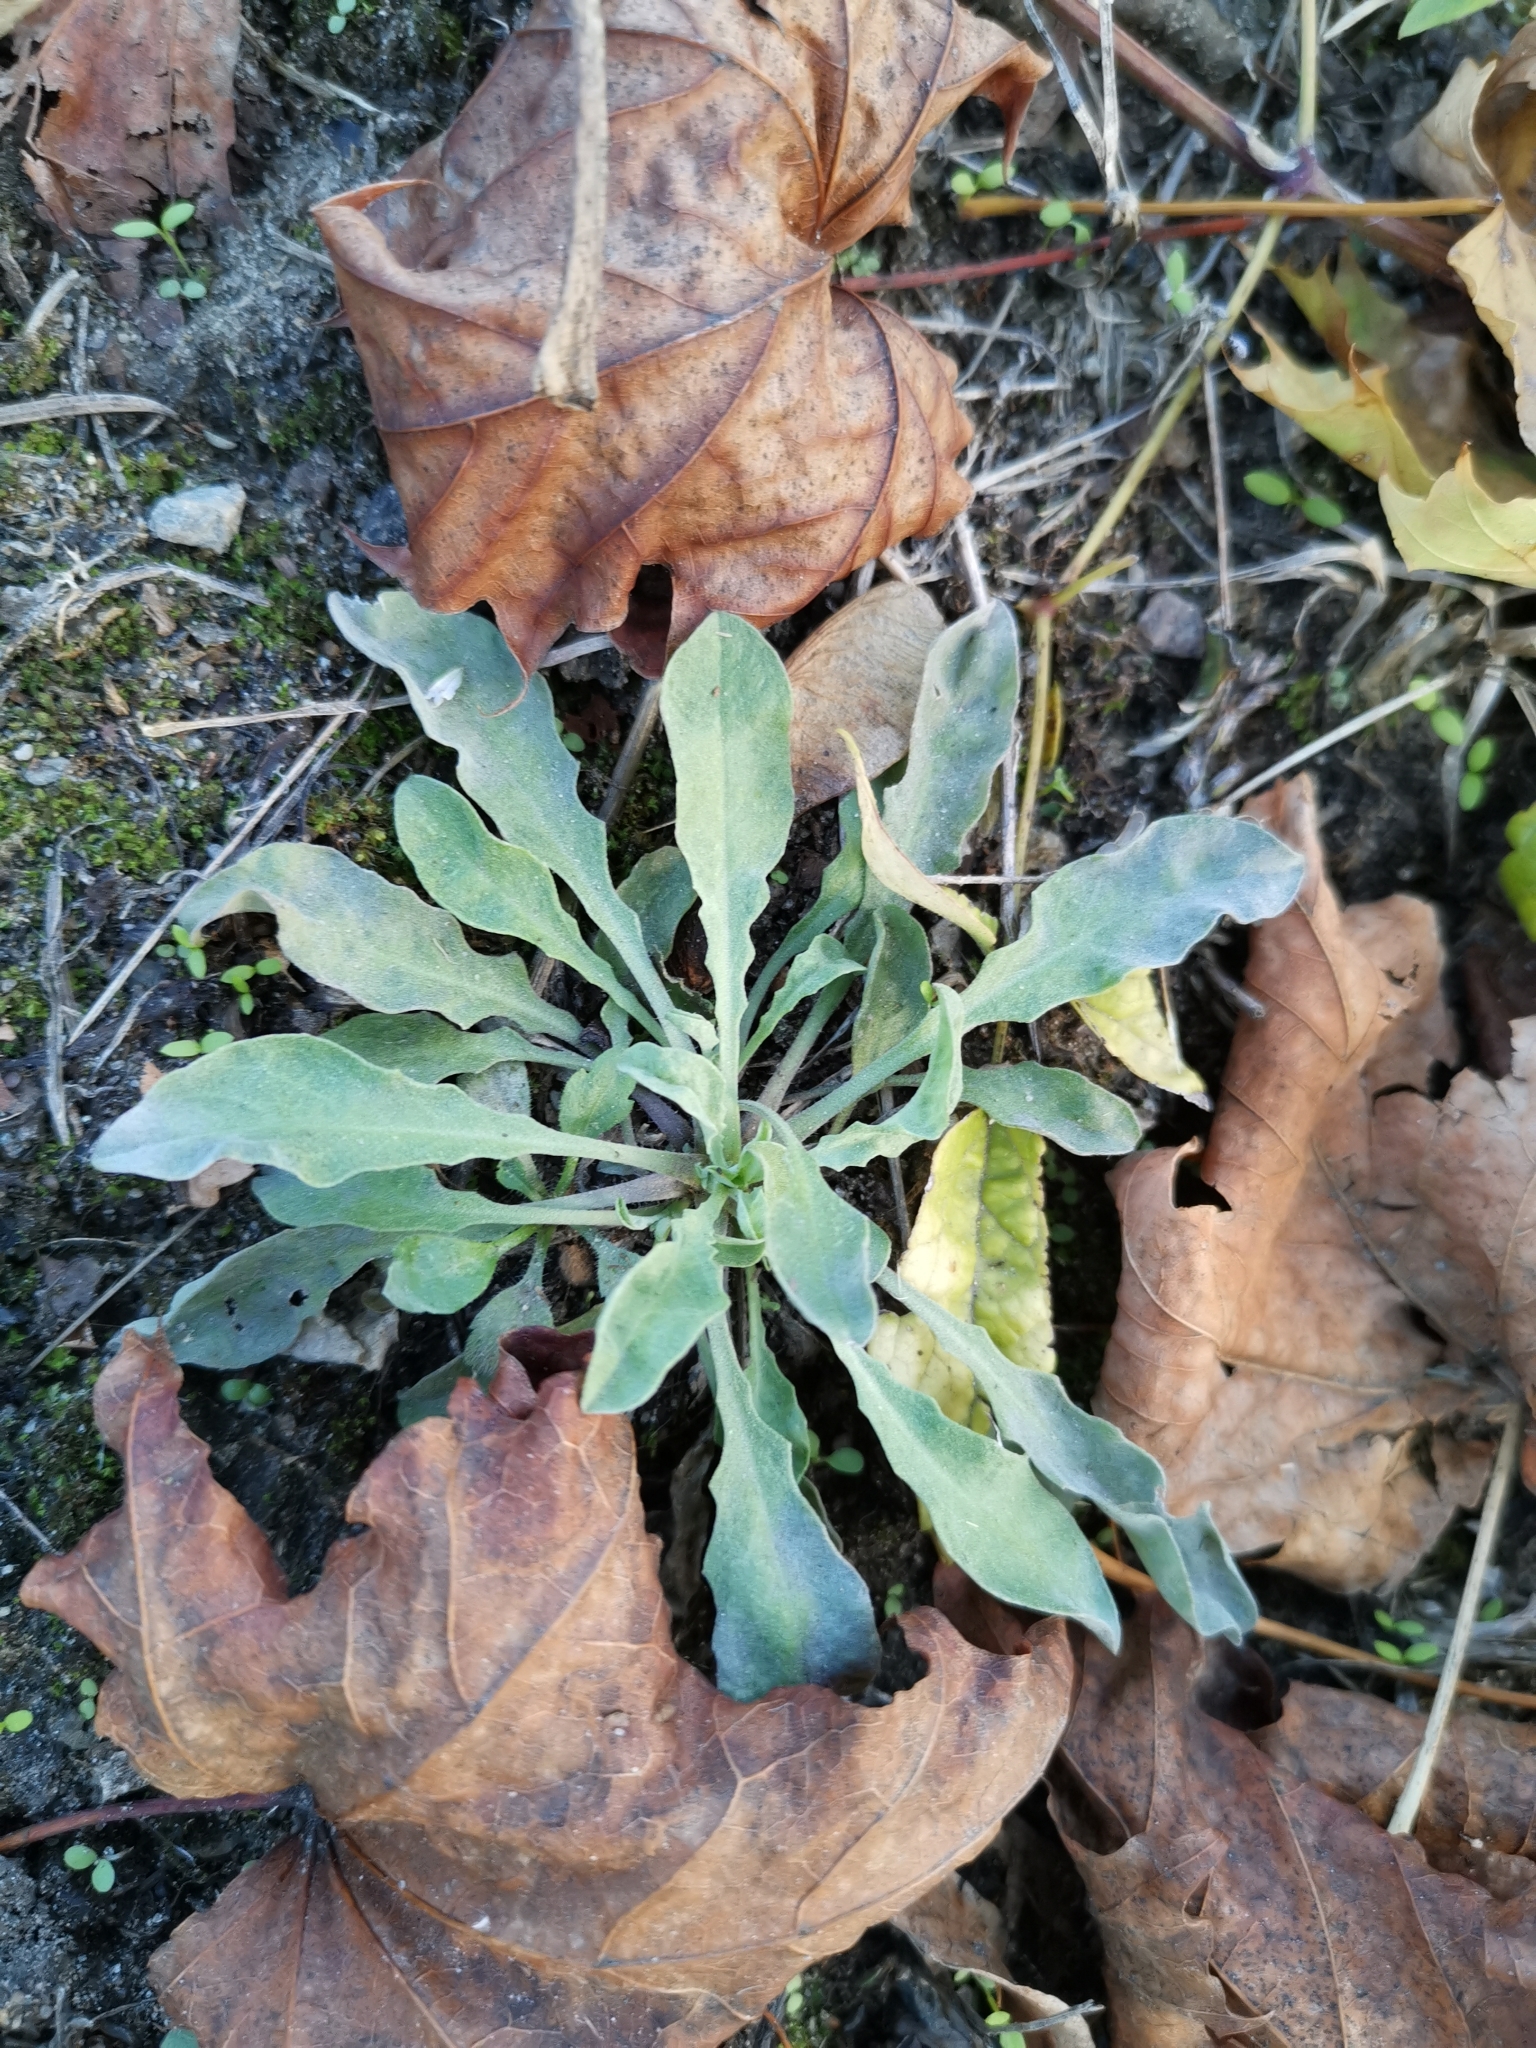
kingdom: Plantae
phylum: Tracheophyta
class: Magnoliopsida
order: Brassicales
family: Brassicaceae
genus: Berteroa
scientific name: Berteroa incana
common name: Hoary alison
